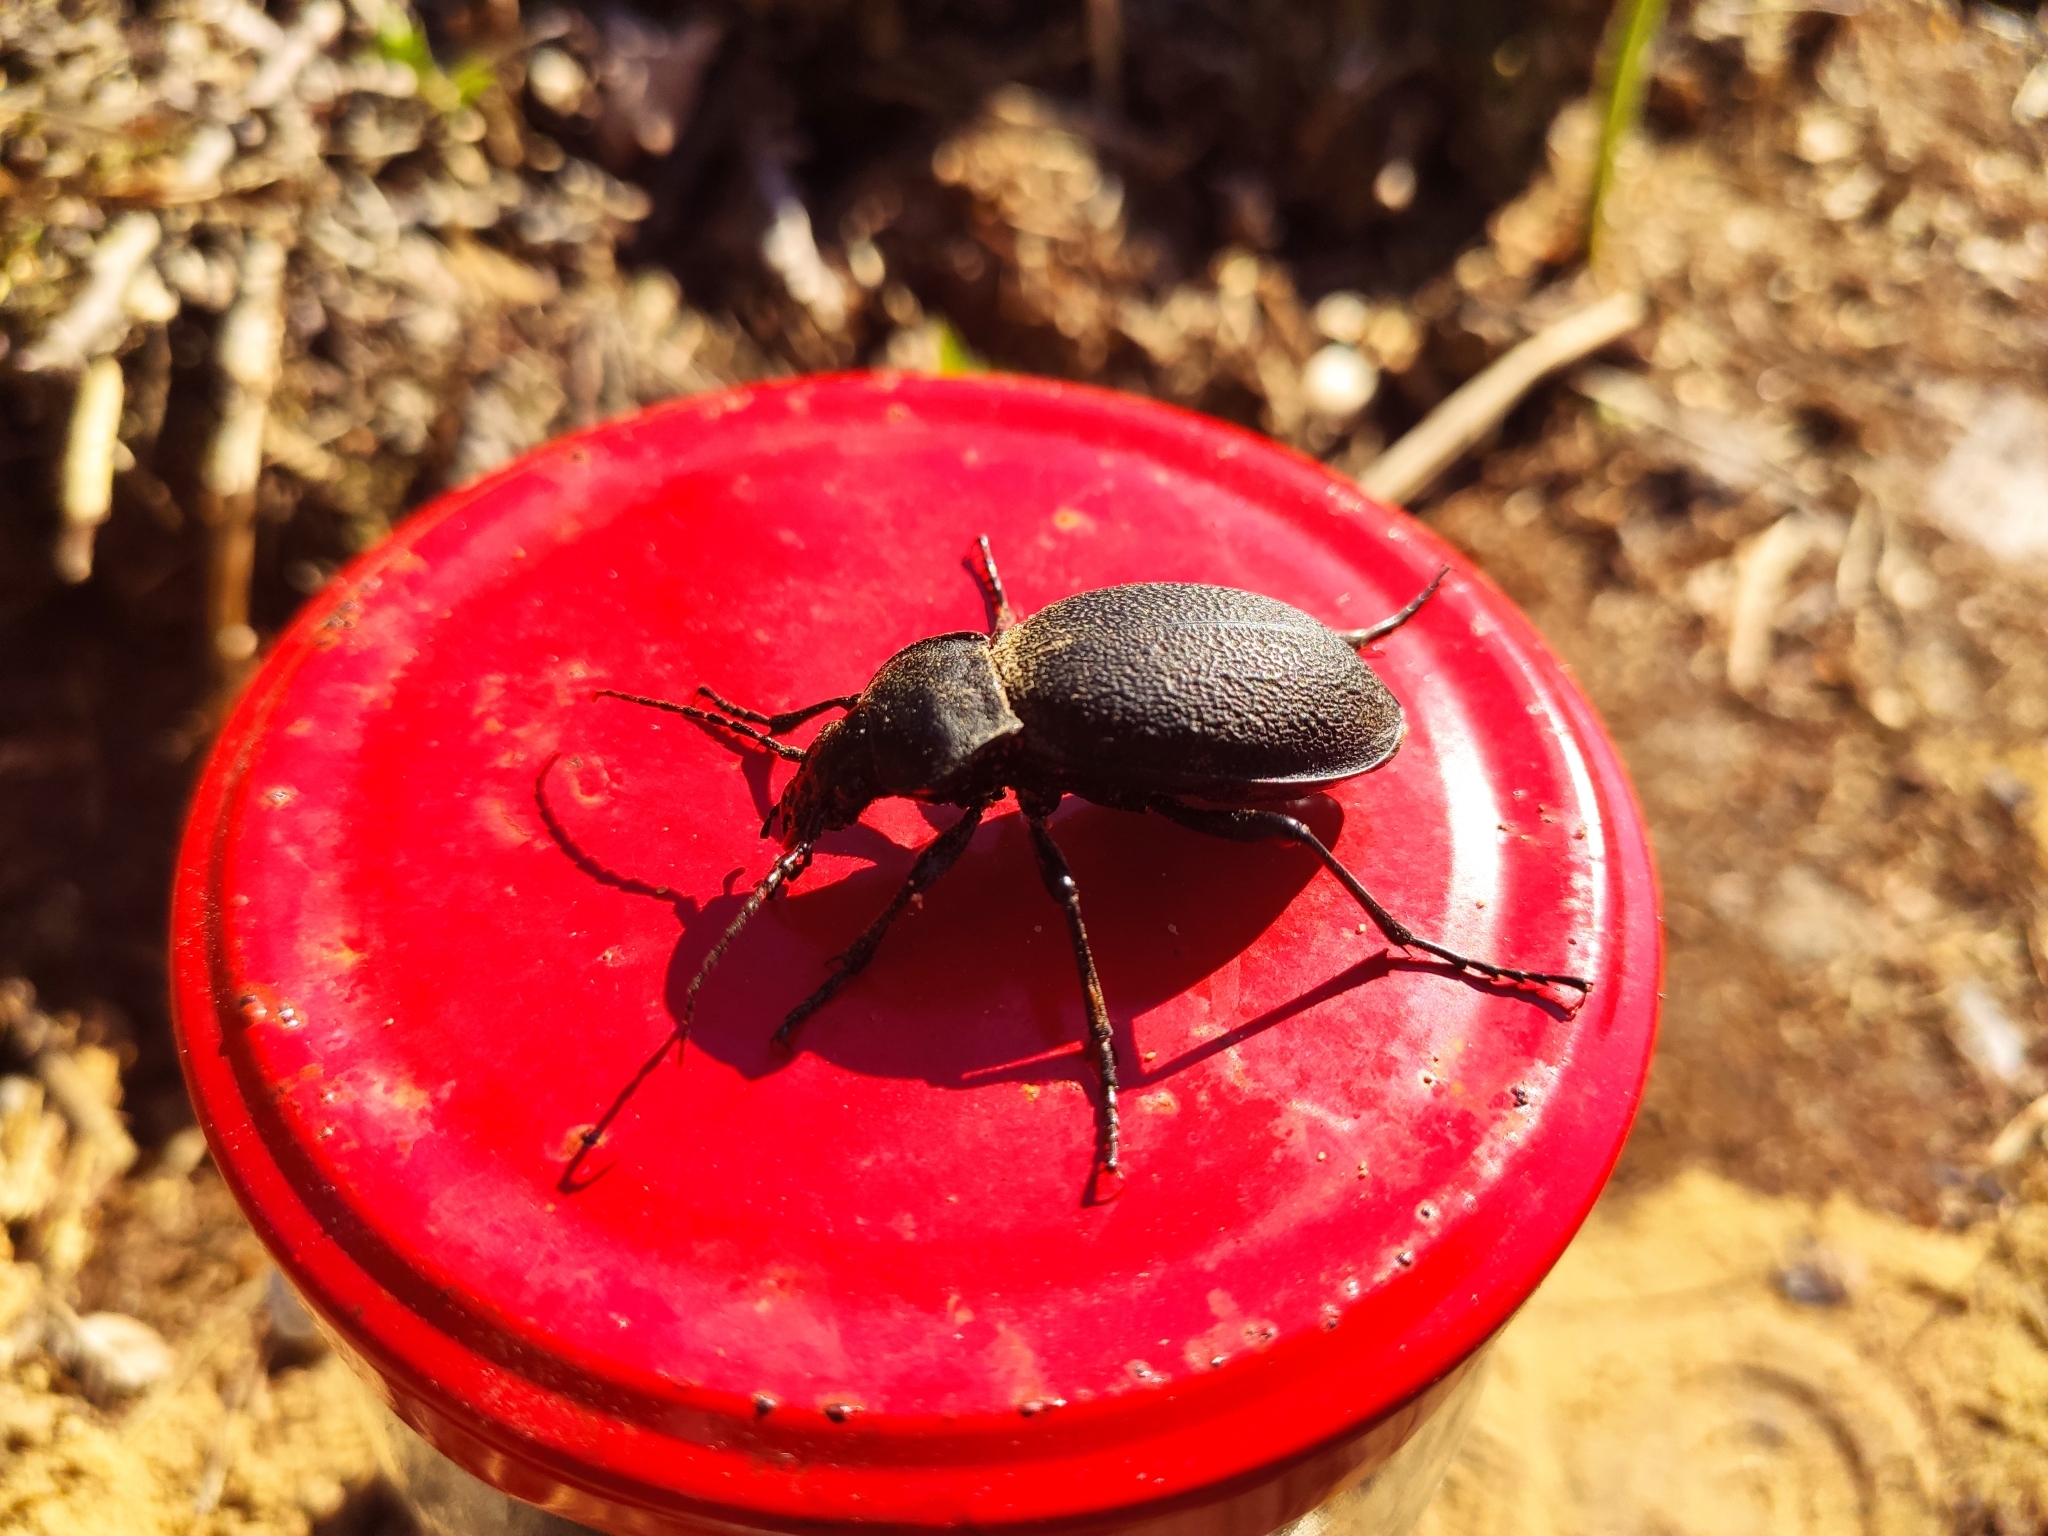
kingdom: Animalia
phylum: Arthropoda
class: Insecta
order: Coleoptera
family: Carabidae
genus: Carabus
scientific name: Carabus coriaceus
